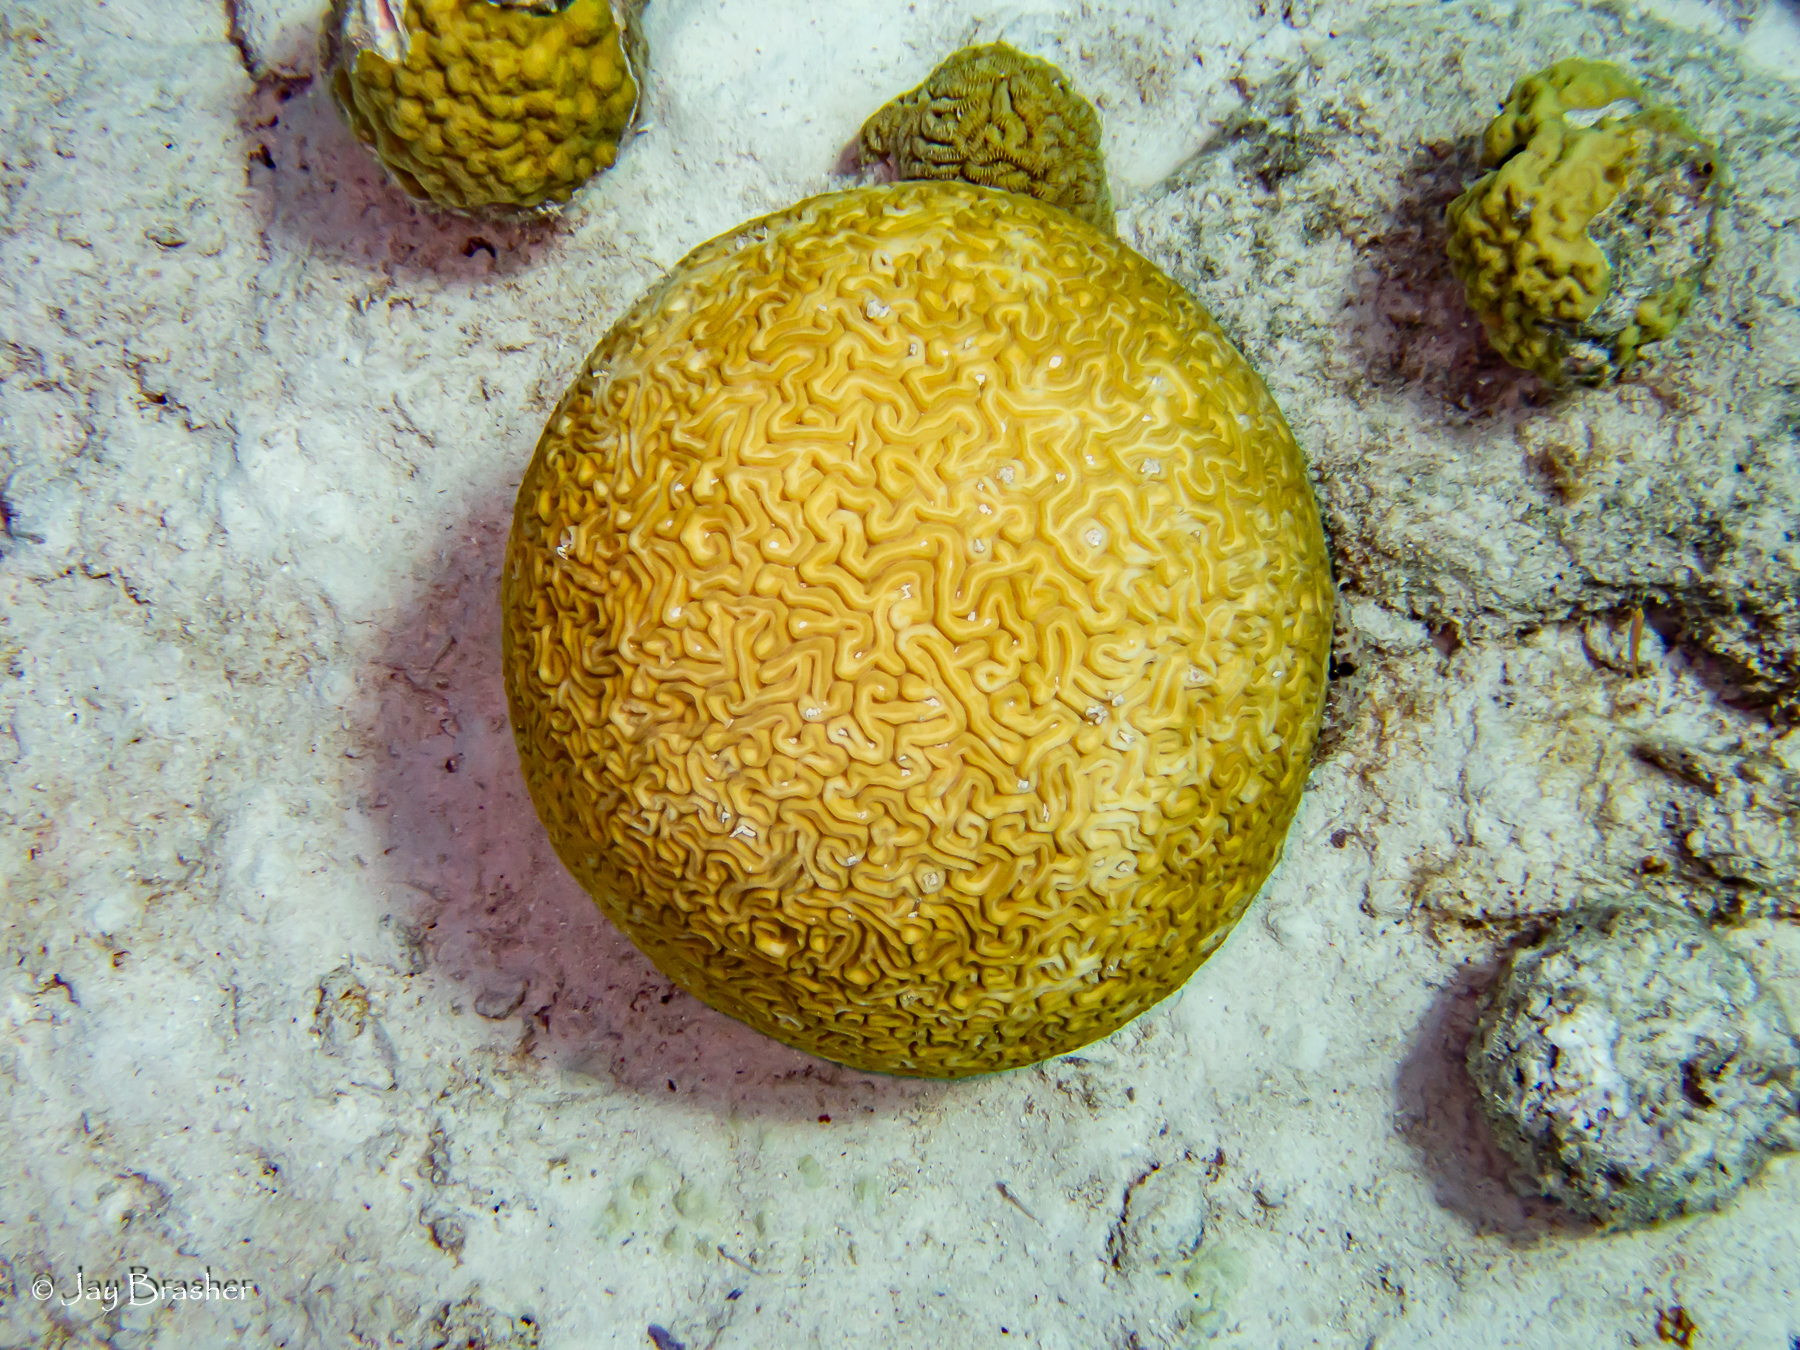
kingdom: Animalia
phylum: Cnidaria
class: Anthozoa
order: Scleractinia
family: Faviidae
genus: Diploria
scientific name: Diploria labyrinthiformis
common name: Grooved brain coral
